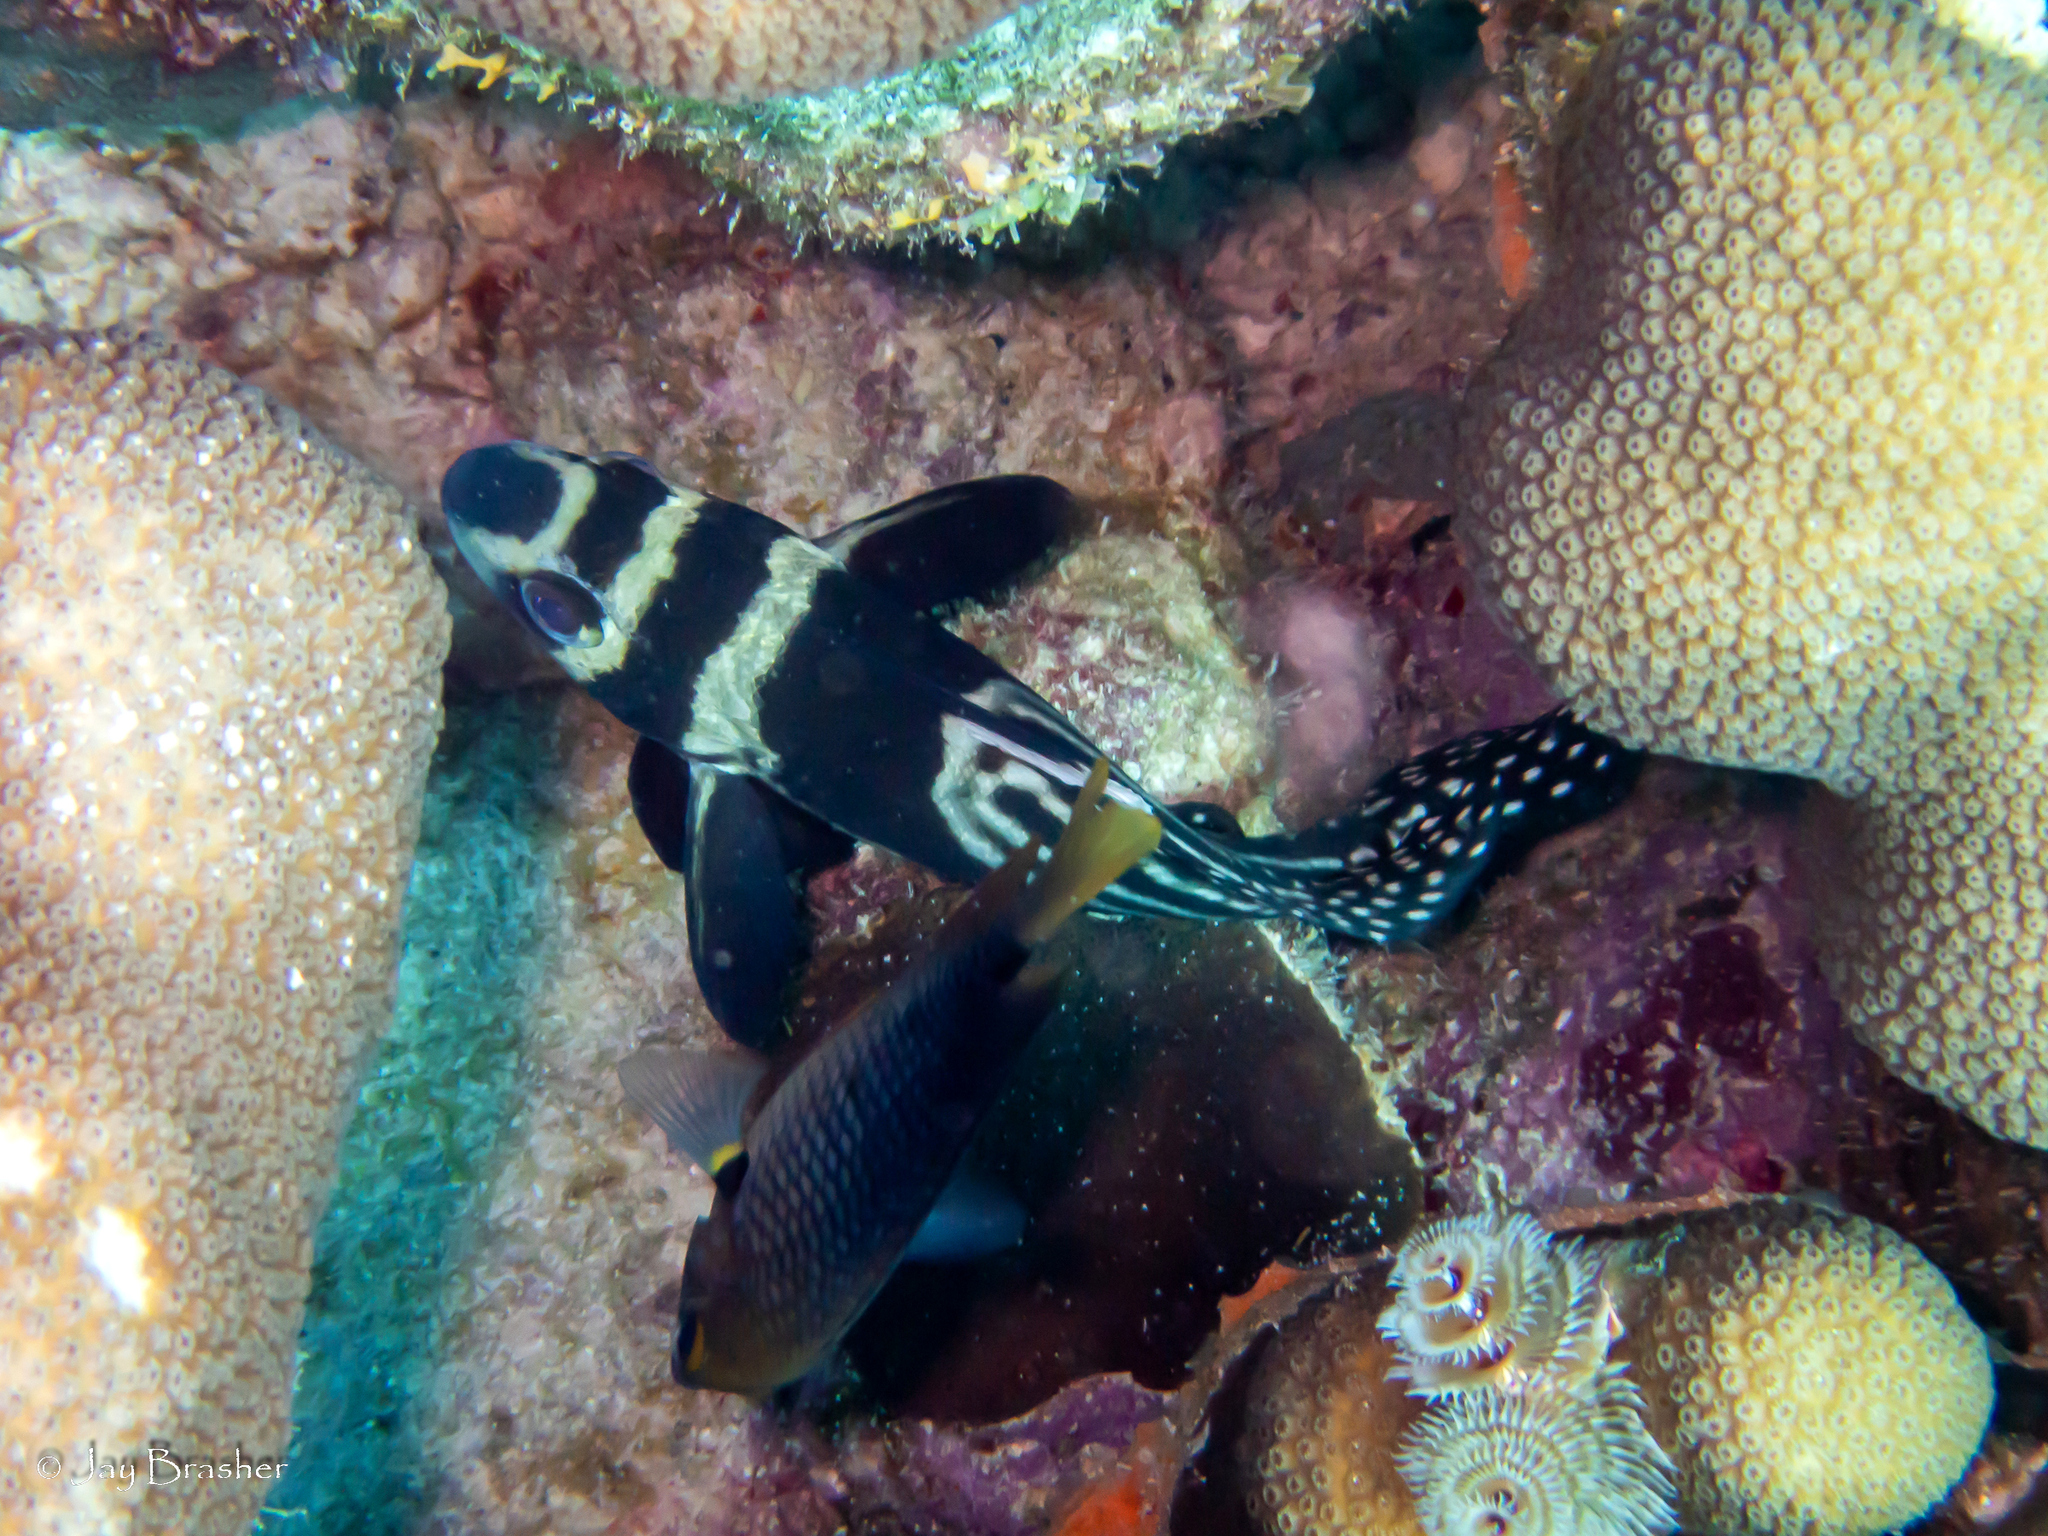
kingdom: Animalia
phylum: Chordata
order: Perciformes
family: Sciaenidae
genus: Equetus
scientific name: Equetus punctatus
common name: Spotted drum
